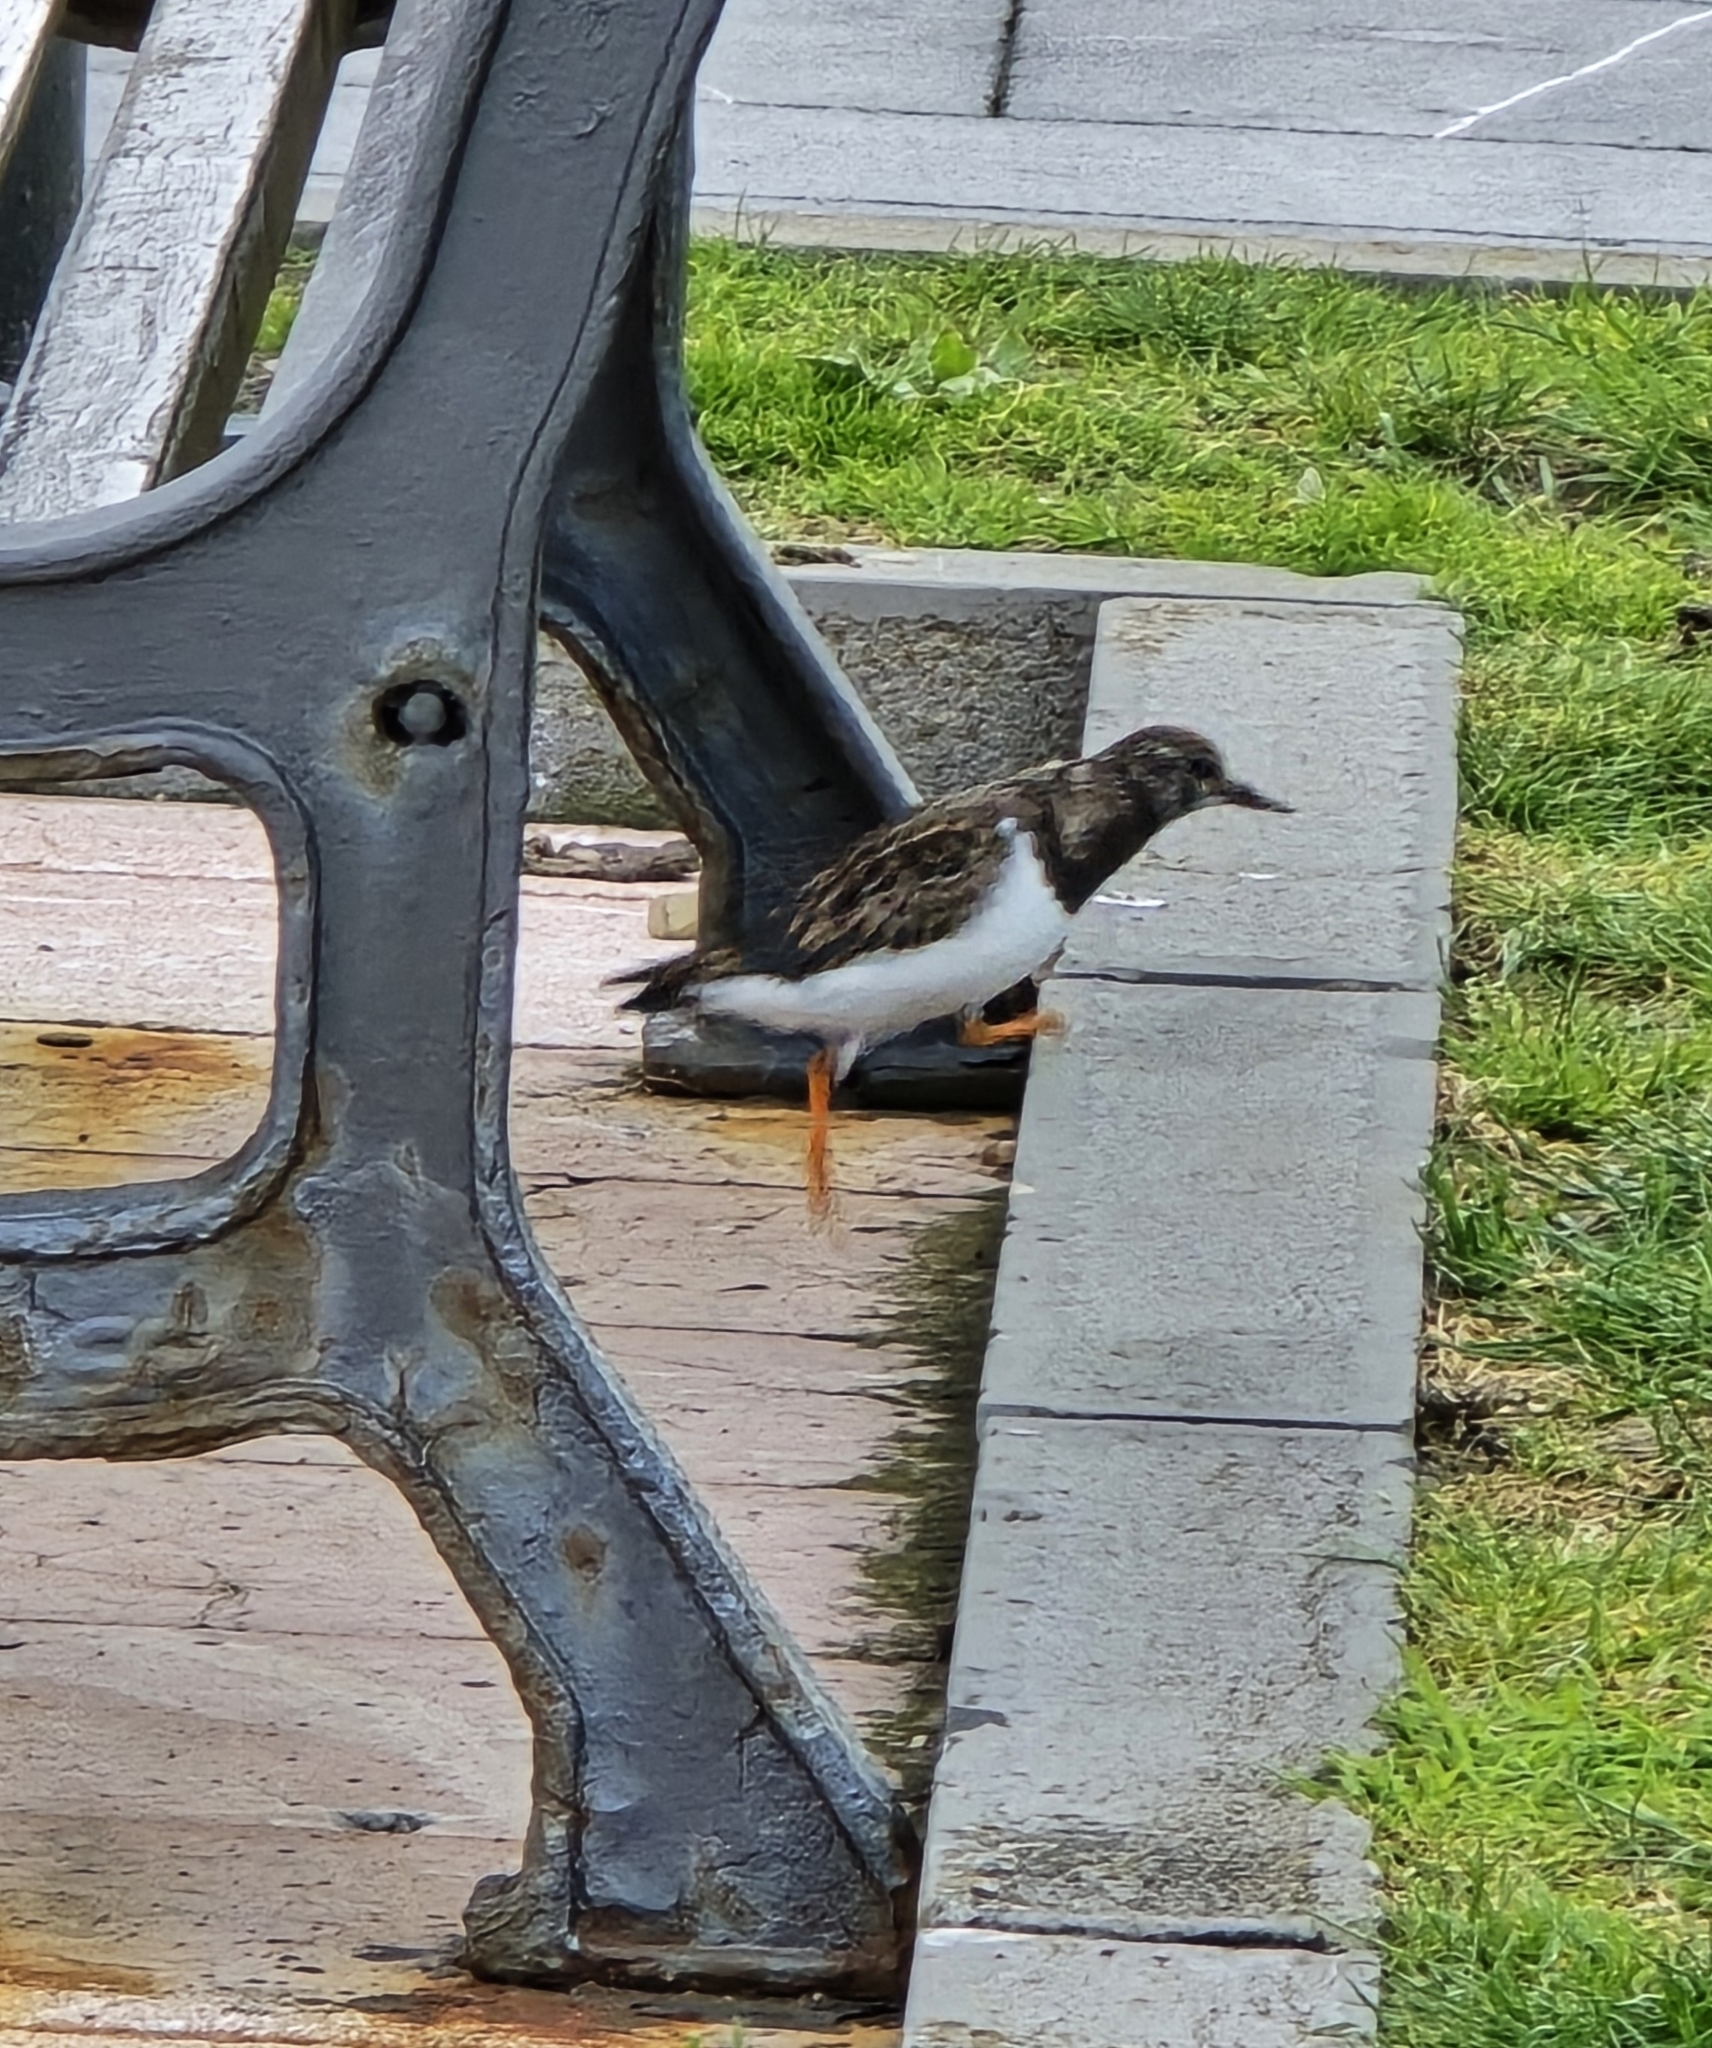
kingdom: Animalia
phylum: Chordata
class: Aves
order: Charadriiformes
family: Scolopacidae
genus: Arenaria
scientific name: Arenaria interpres
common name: Ruddy turnstone
